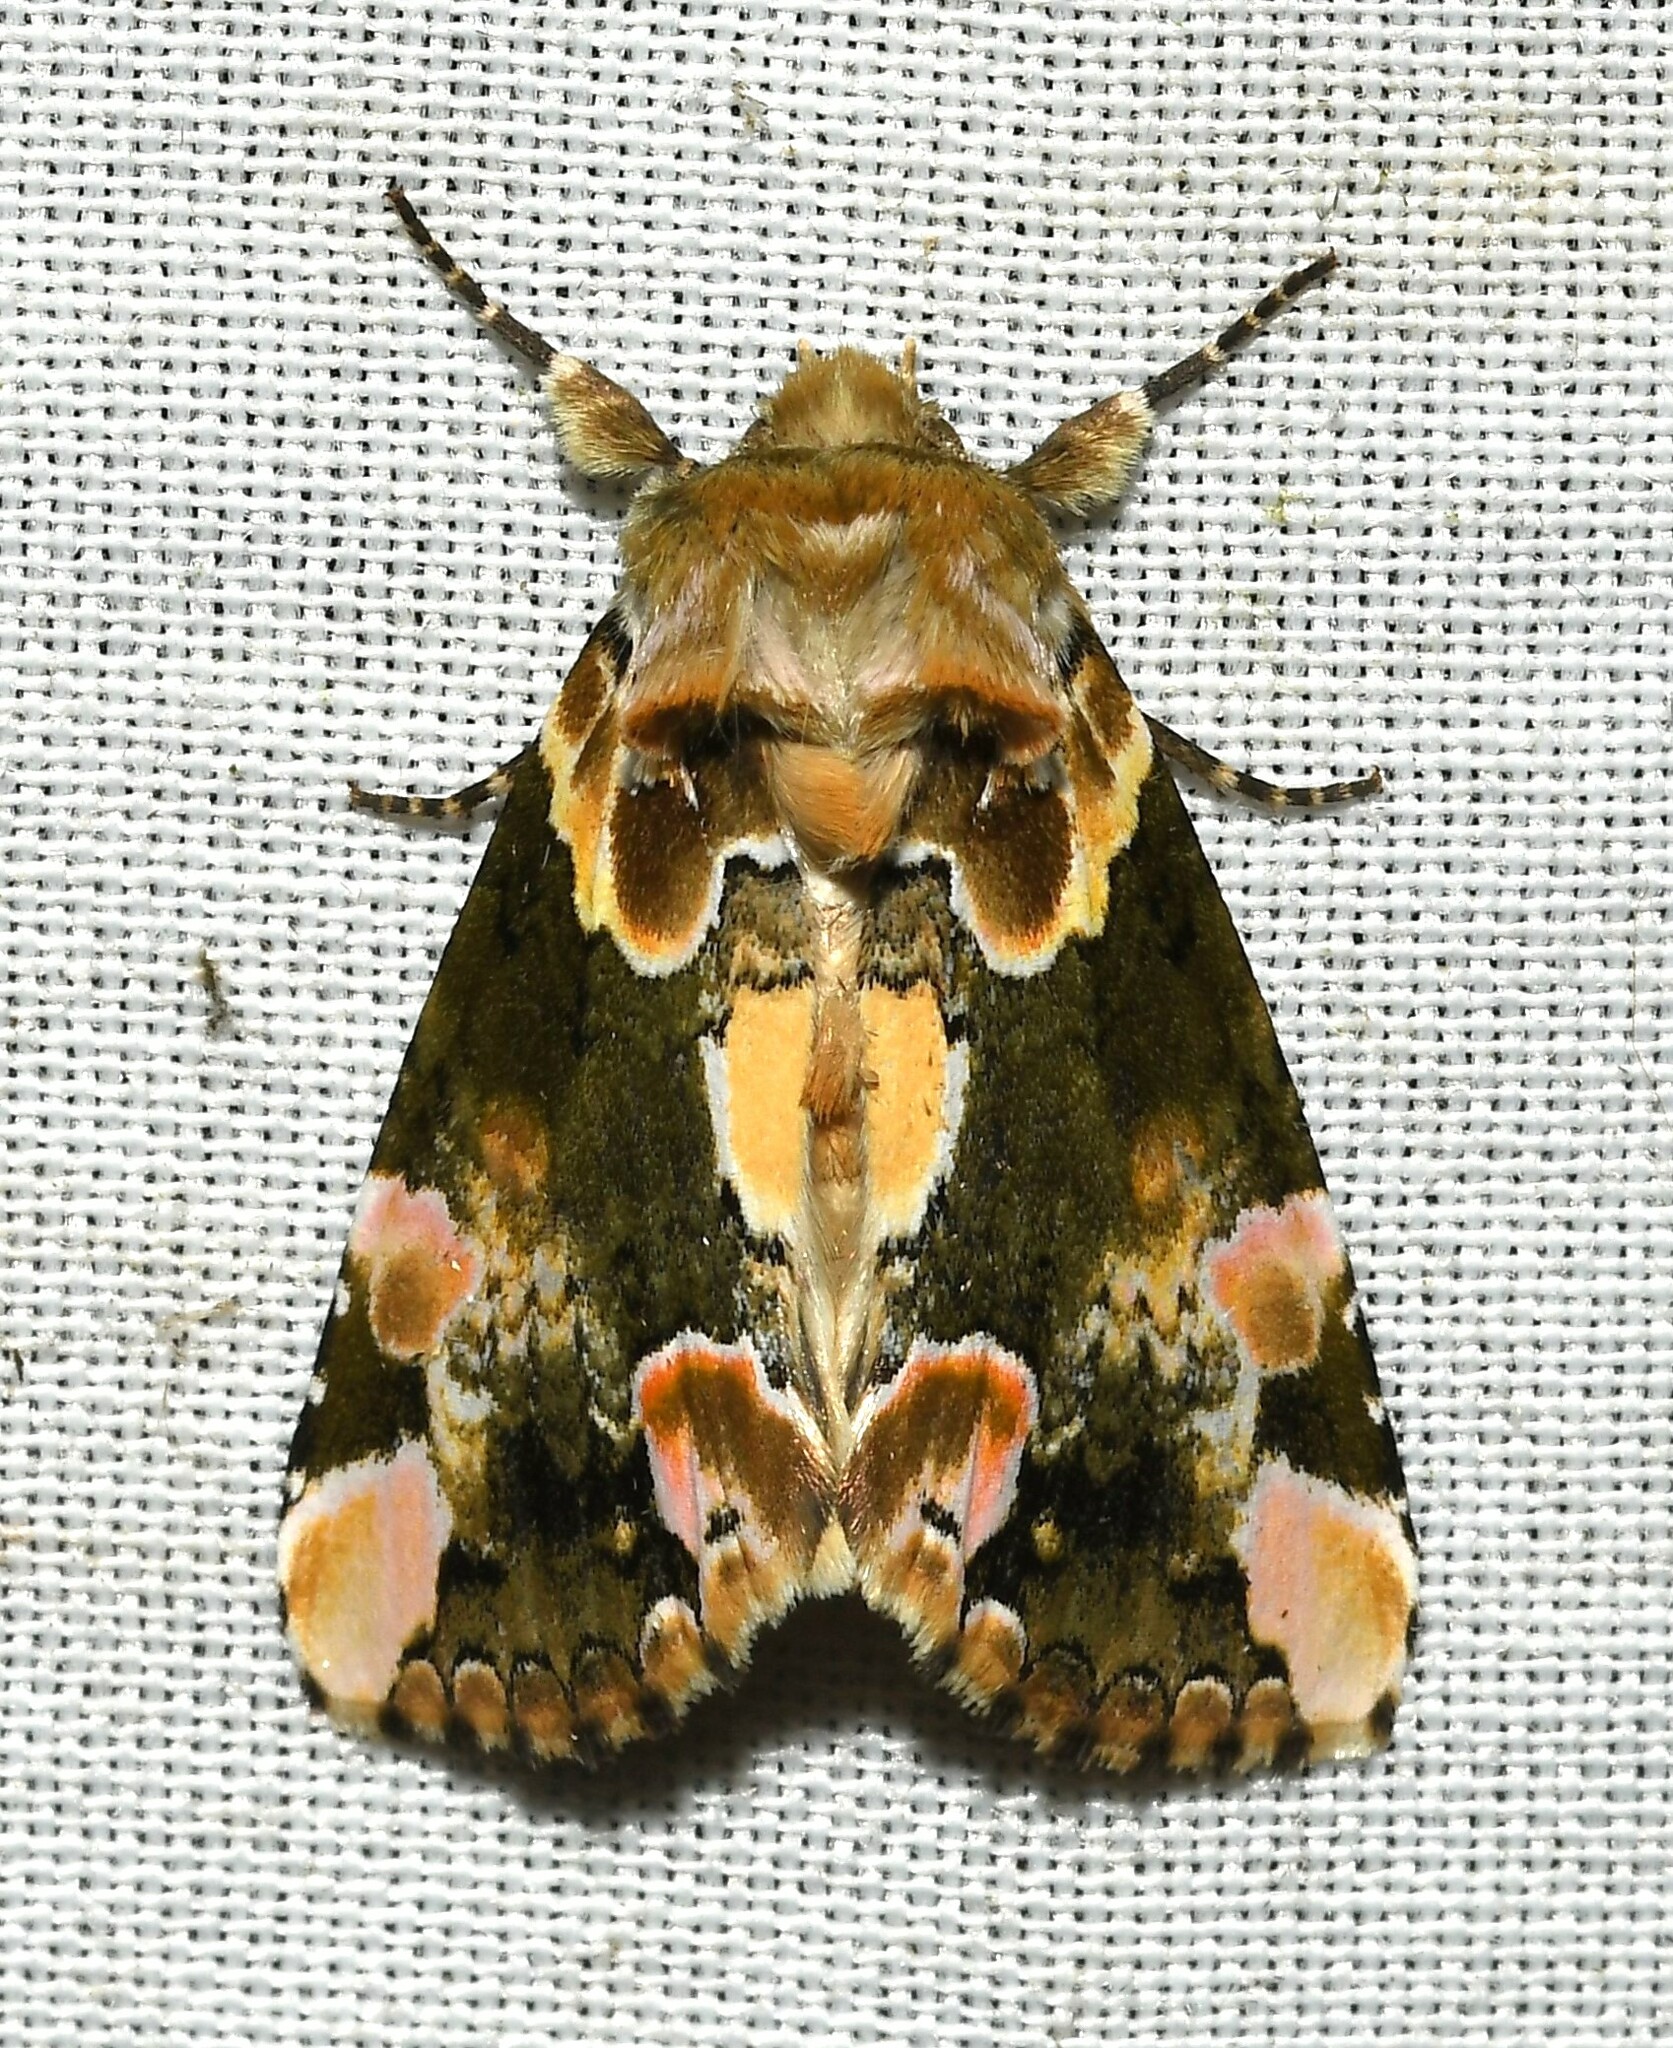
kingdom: Animalia
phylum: Arthropoda
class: Insecta
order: Lepidoptera
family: Drepanidae
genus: Thyatira
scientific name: Thyatira mexicana
